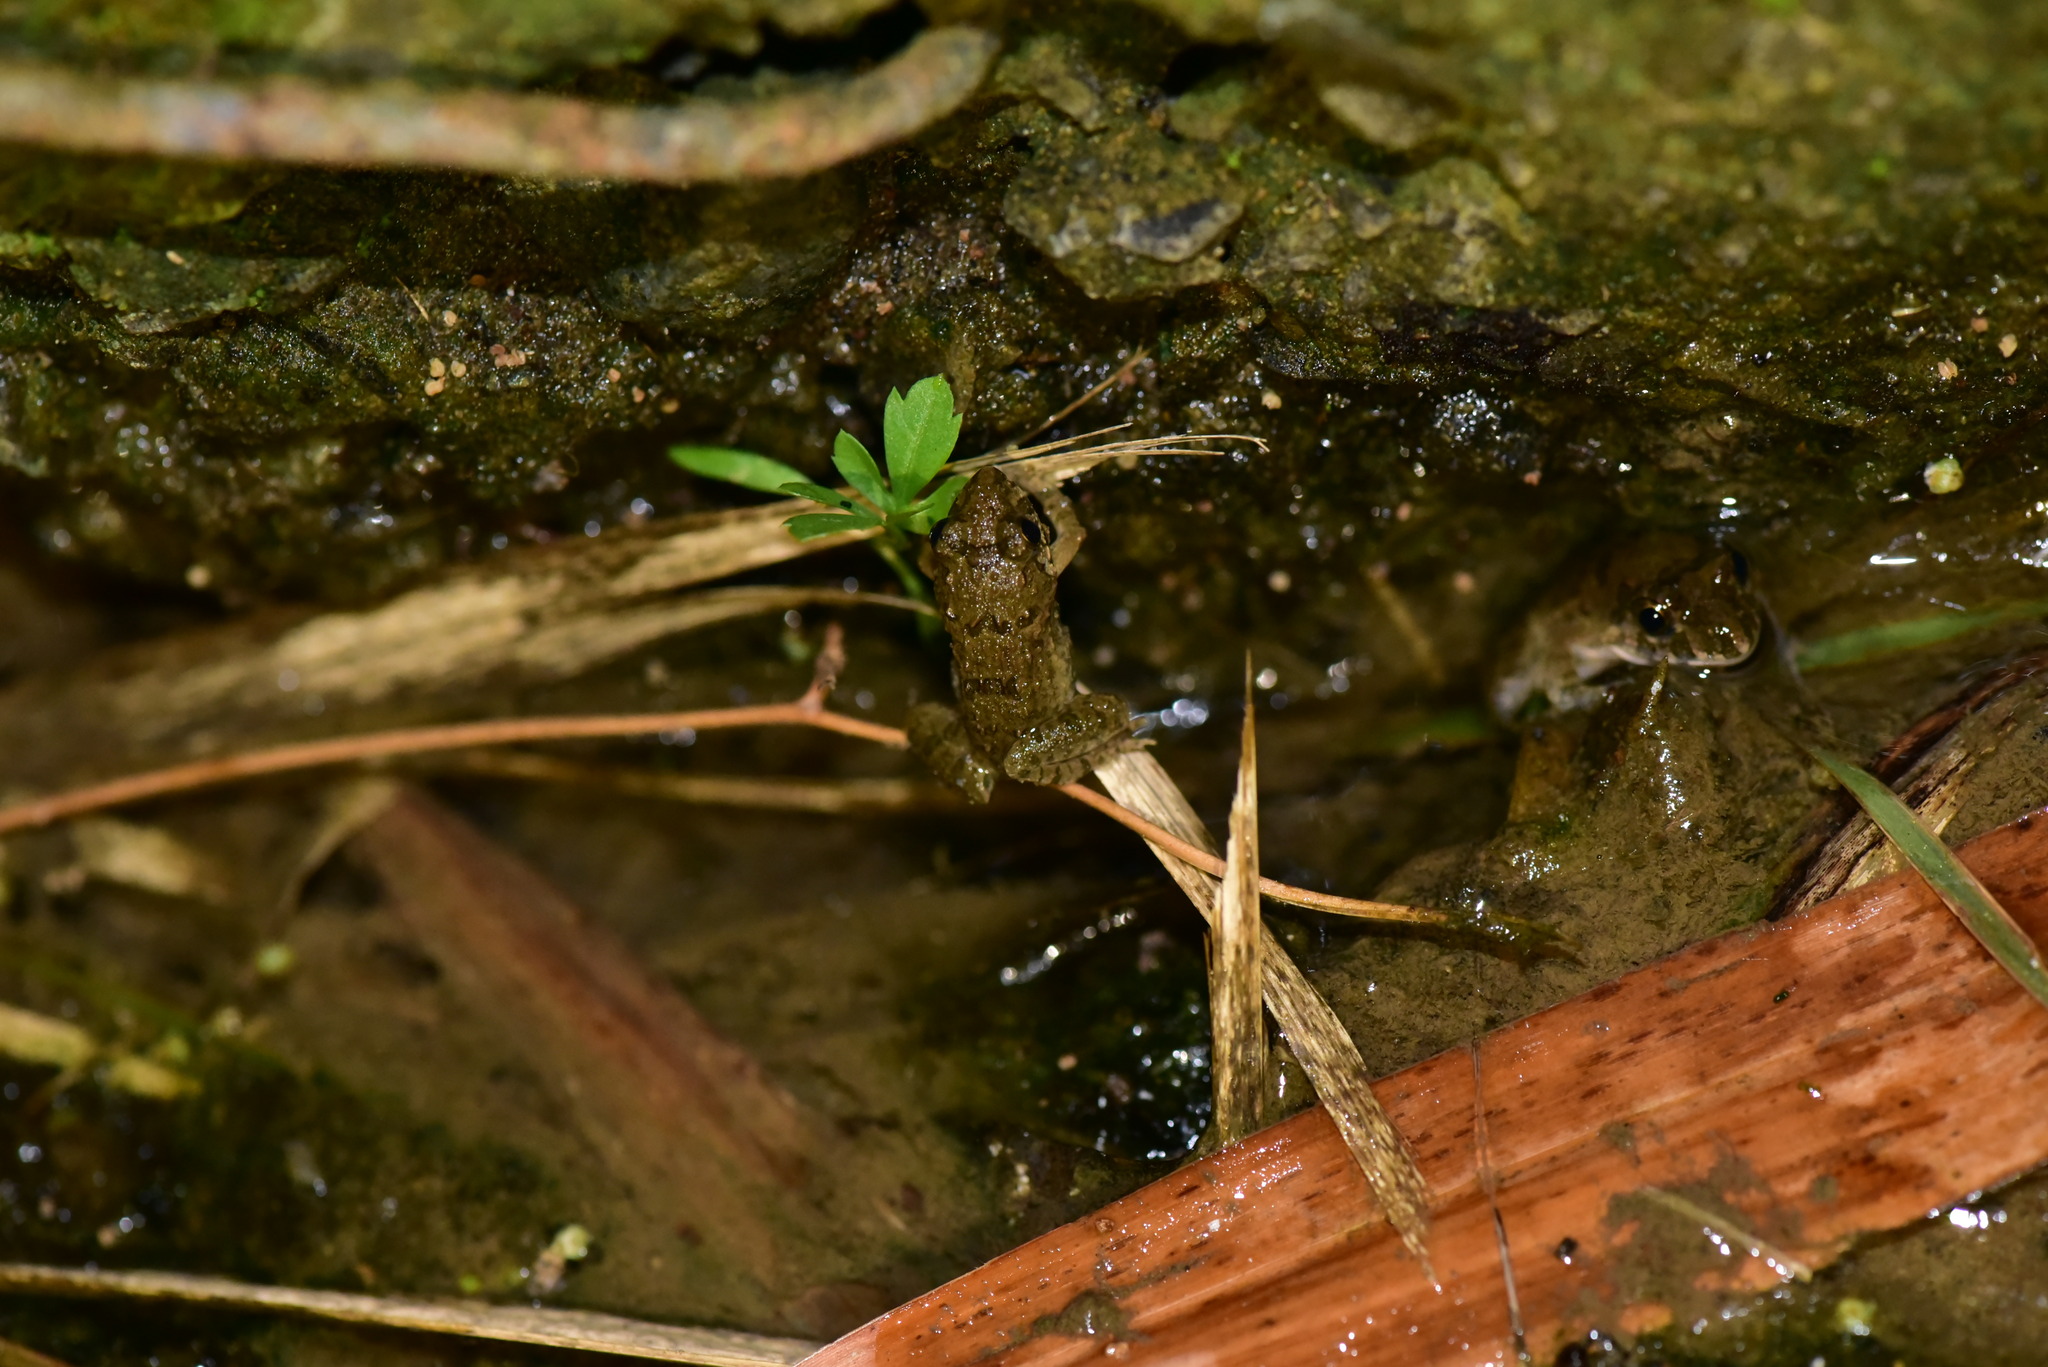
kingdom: Animalia
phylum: Chordata
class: Amphibia
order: Anura
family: Dicroglossidae
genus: Fejervarya
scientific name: Fejervarya limnocharis
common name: Asian grass frog/common pond frog/field frog/grass frog/indian rice frog
